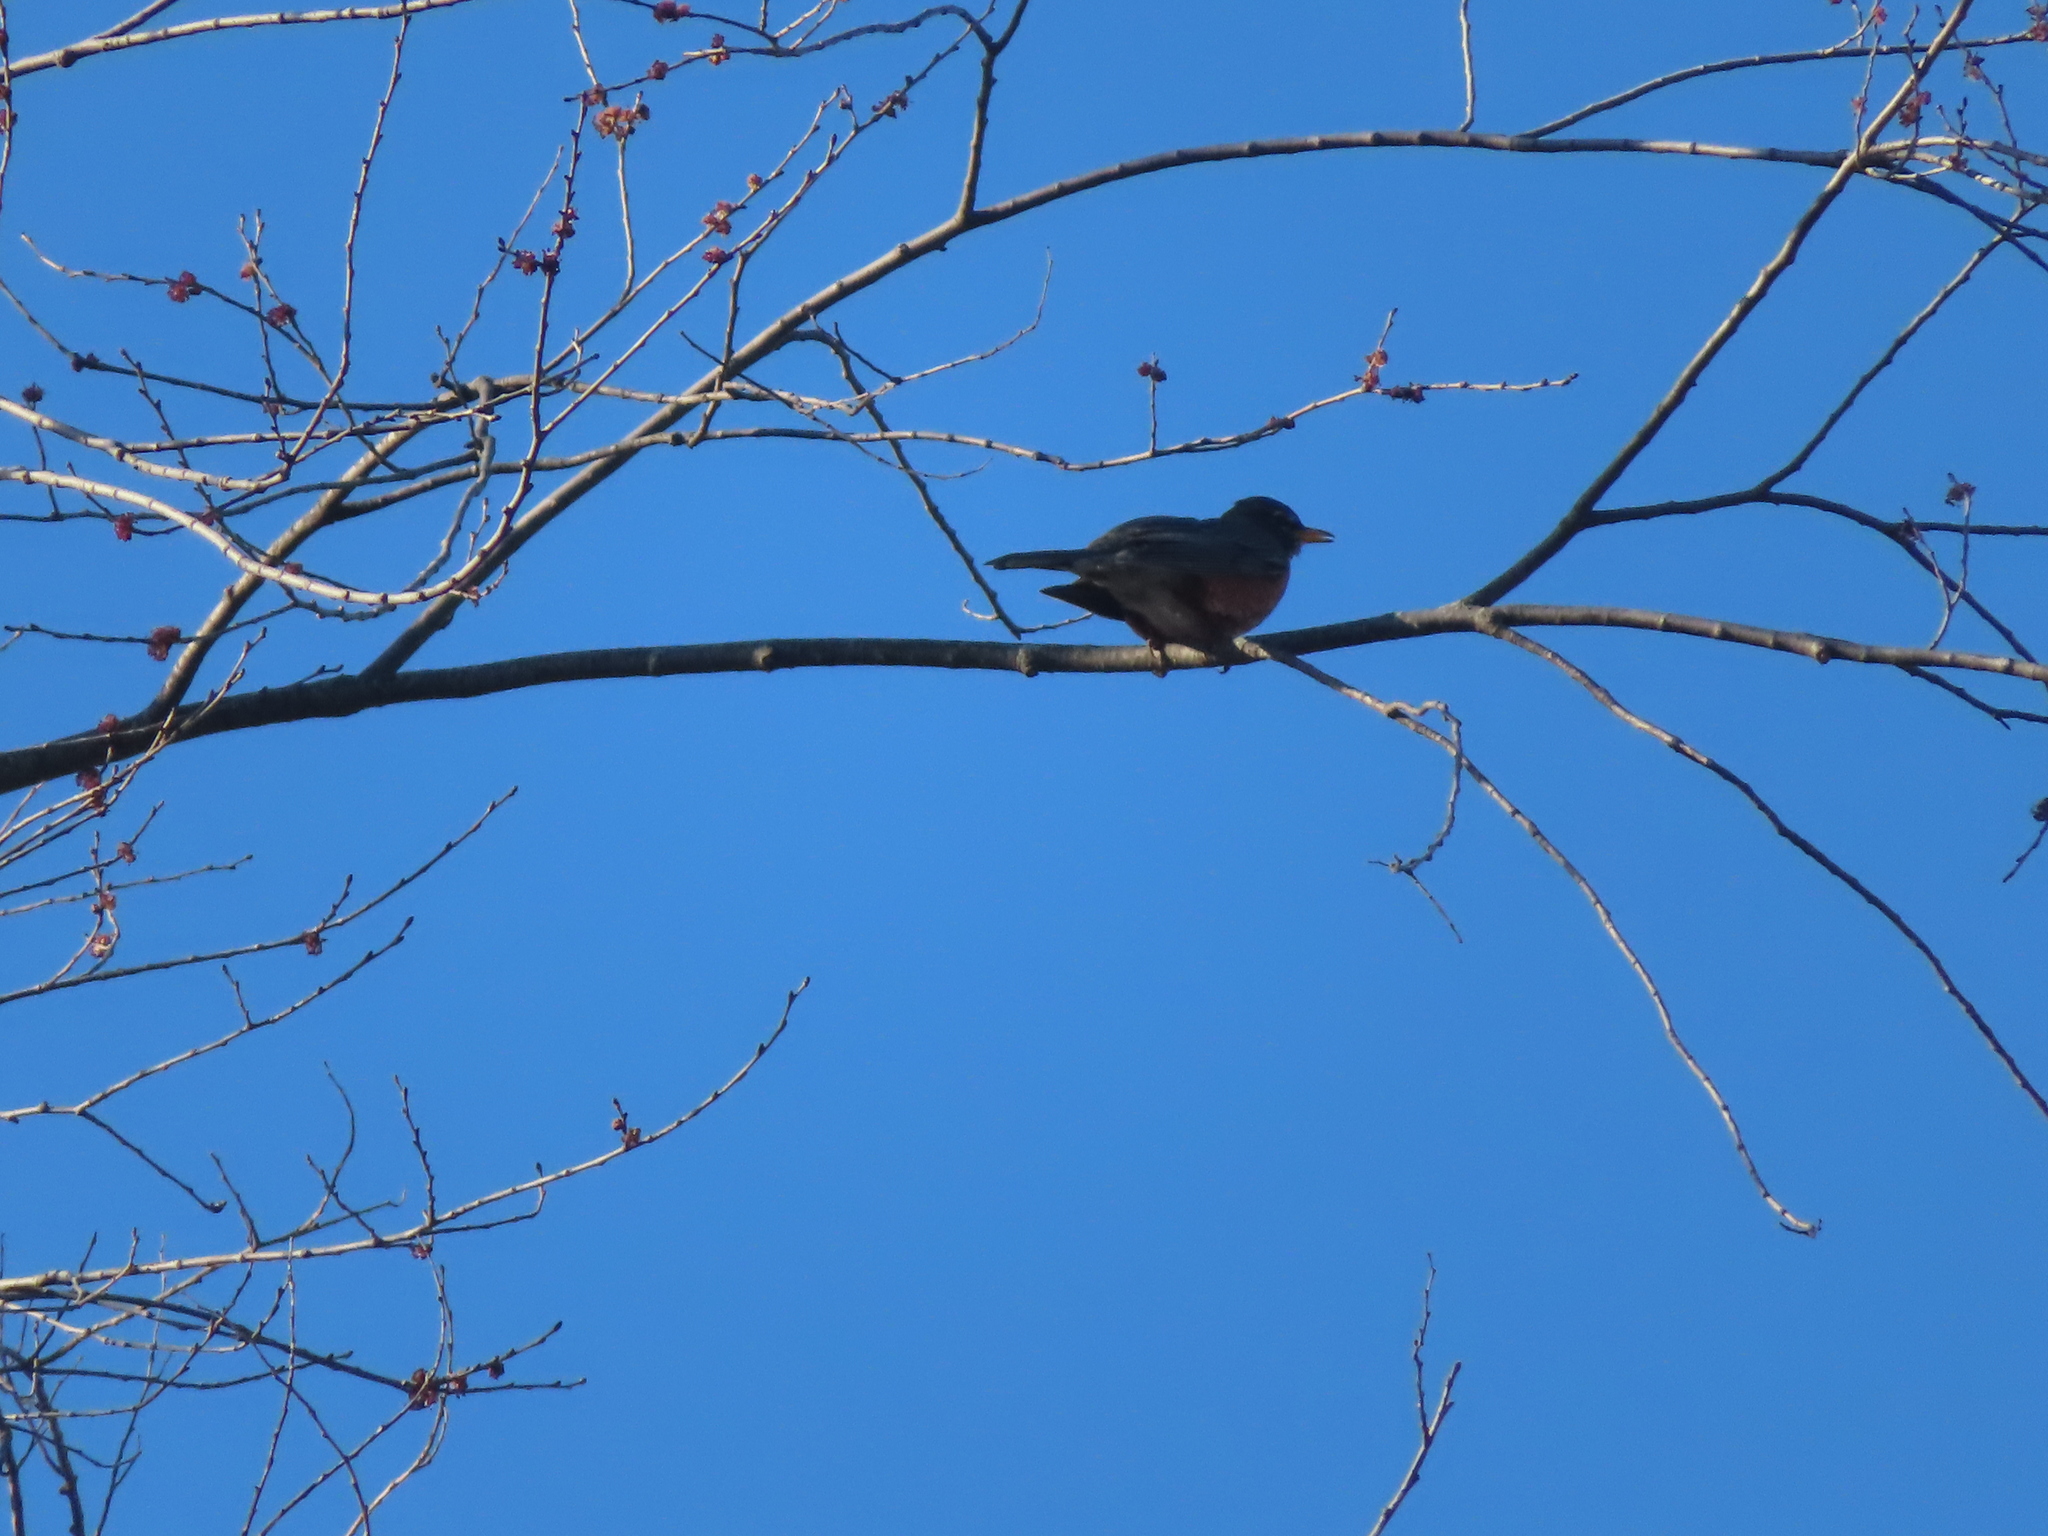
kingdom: Animalia
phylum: Chordata
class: Aves
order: Passeriformes
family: Turdidae
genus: Turdus
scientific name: Turdus migratorius
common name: American robin
